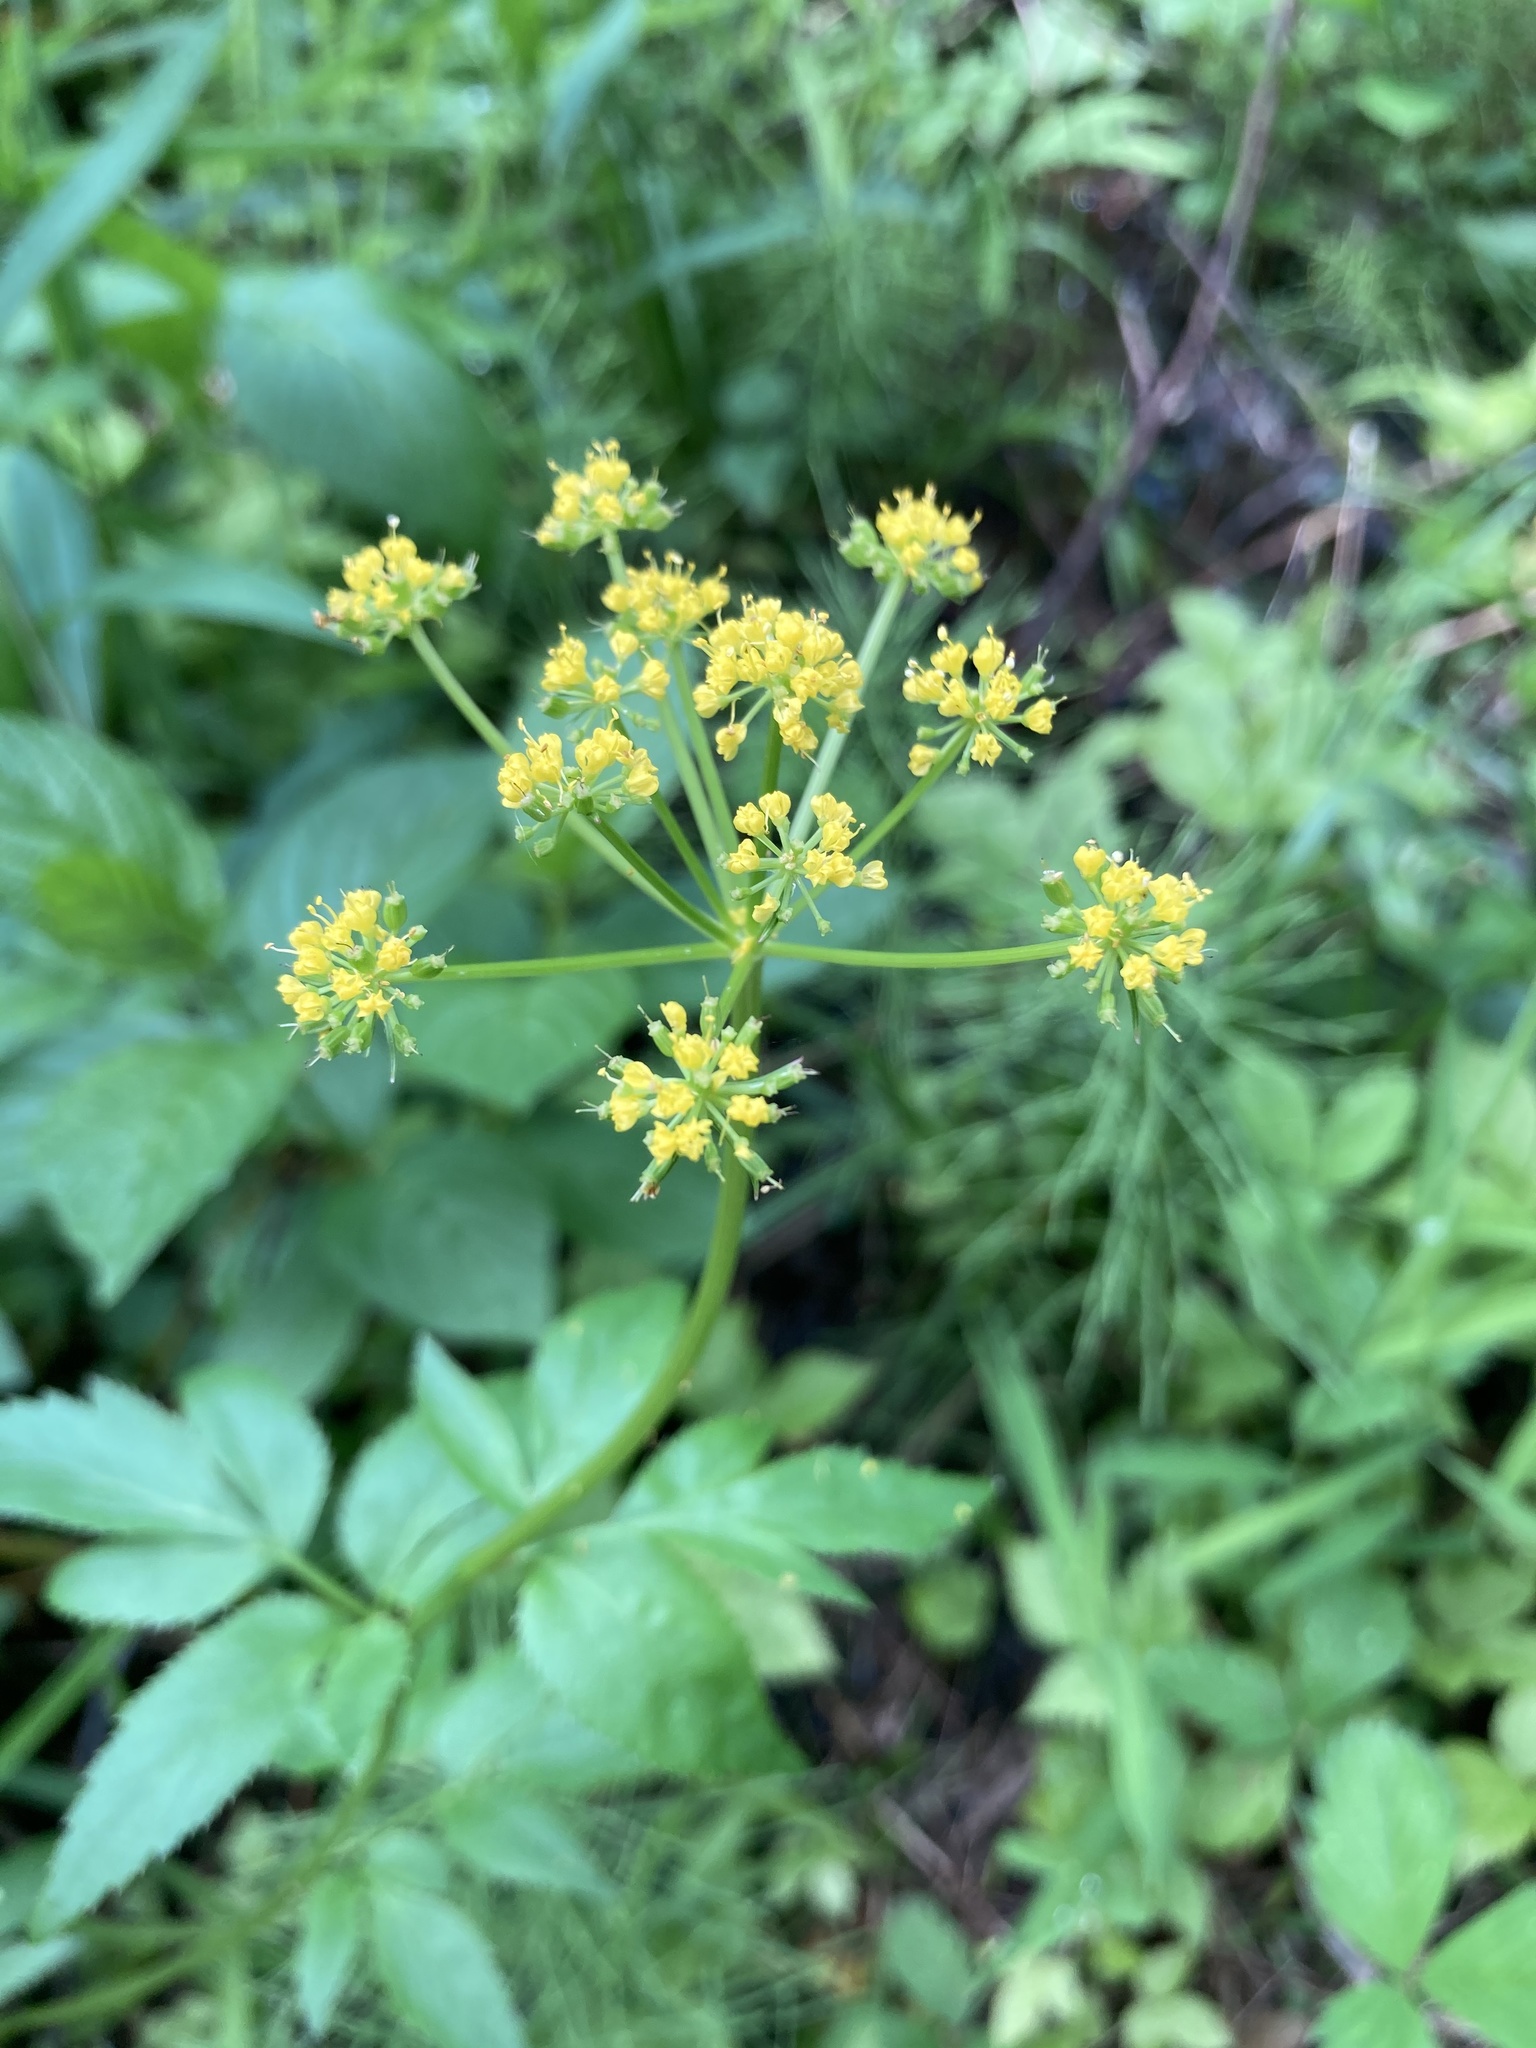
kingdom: Plantae
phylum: Tracheophyta
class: Magnoliopsida
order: Apiales
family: Apiaceae
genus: Zizia
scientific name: Zizia aurea
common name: Golden alexanders
